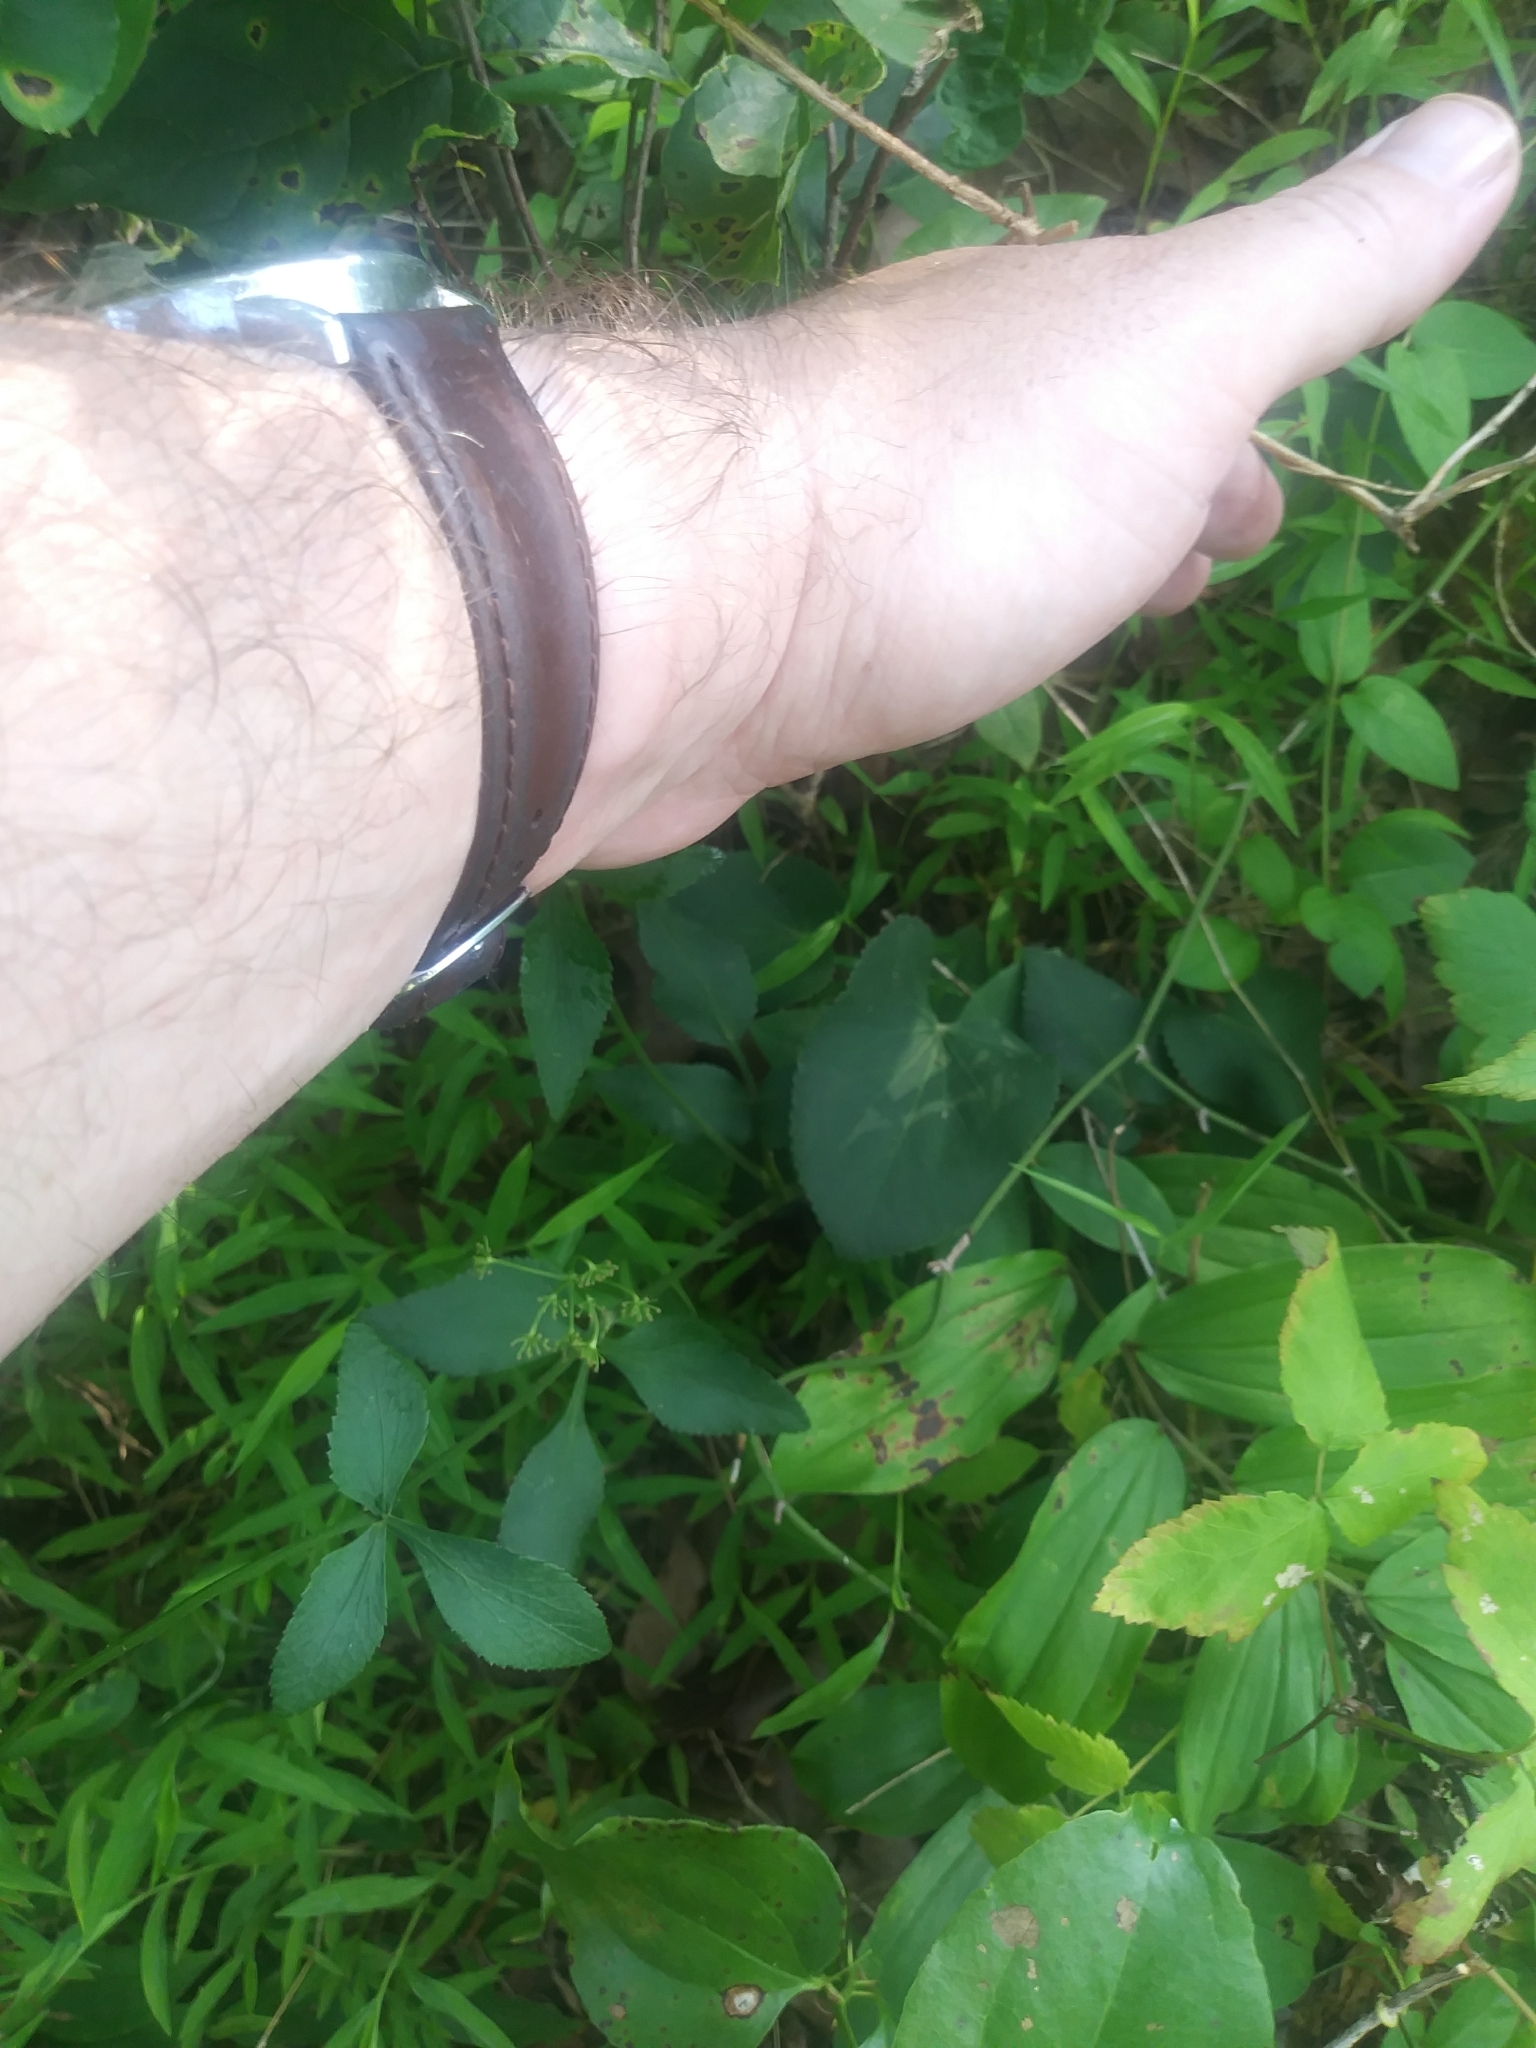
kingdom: Plantae
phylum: Tracheophyta
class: Magnoliopsida
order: Apiales
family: Apiaceae
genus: Zizia
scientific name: Zizia aptera
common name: Heart-leaved alexanders
